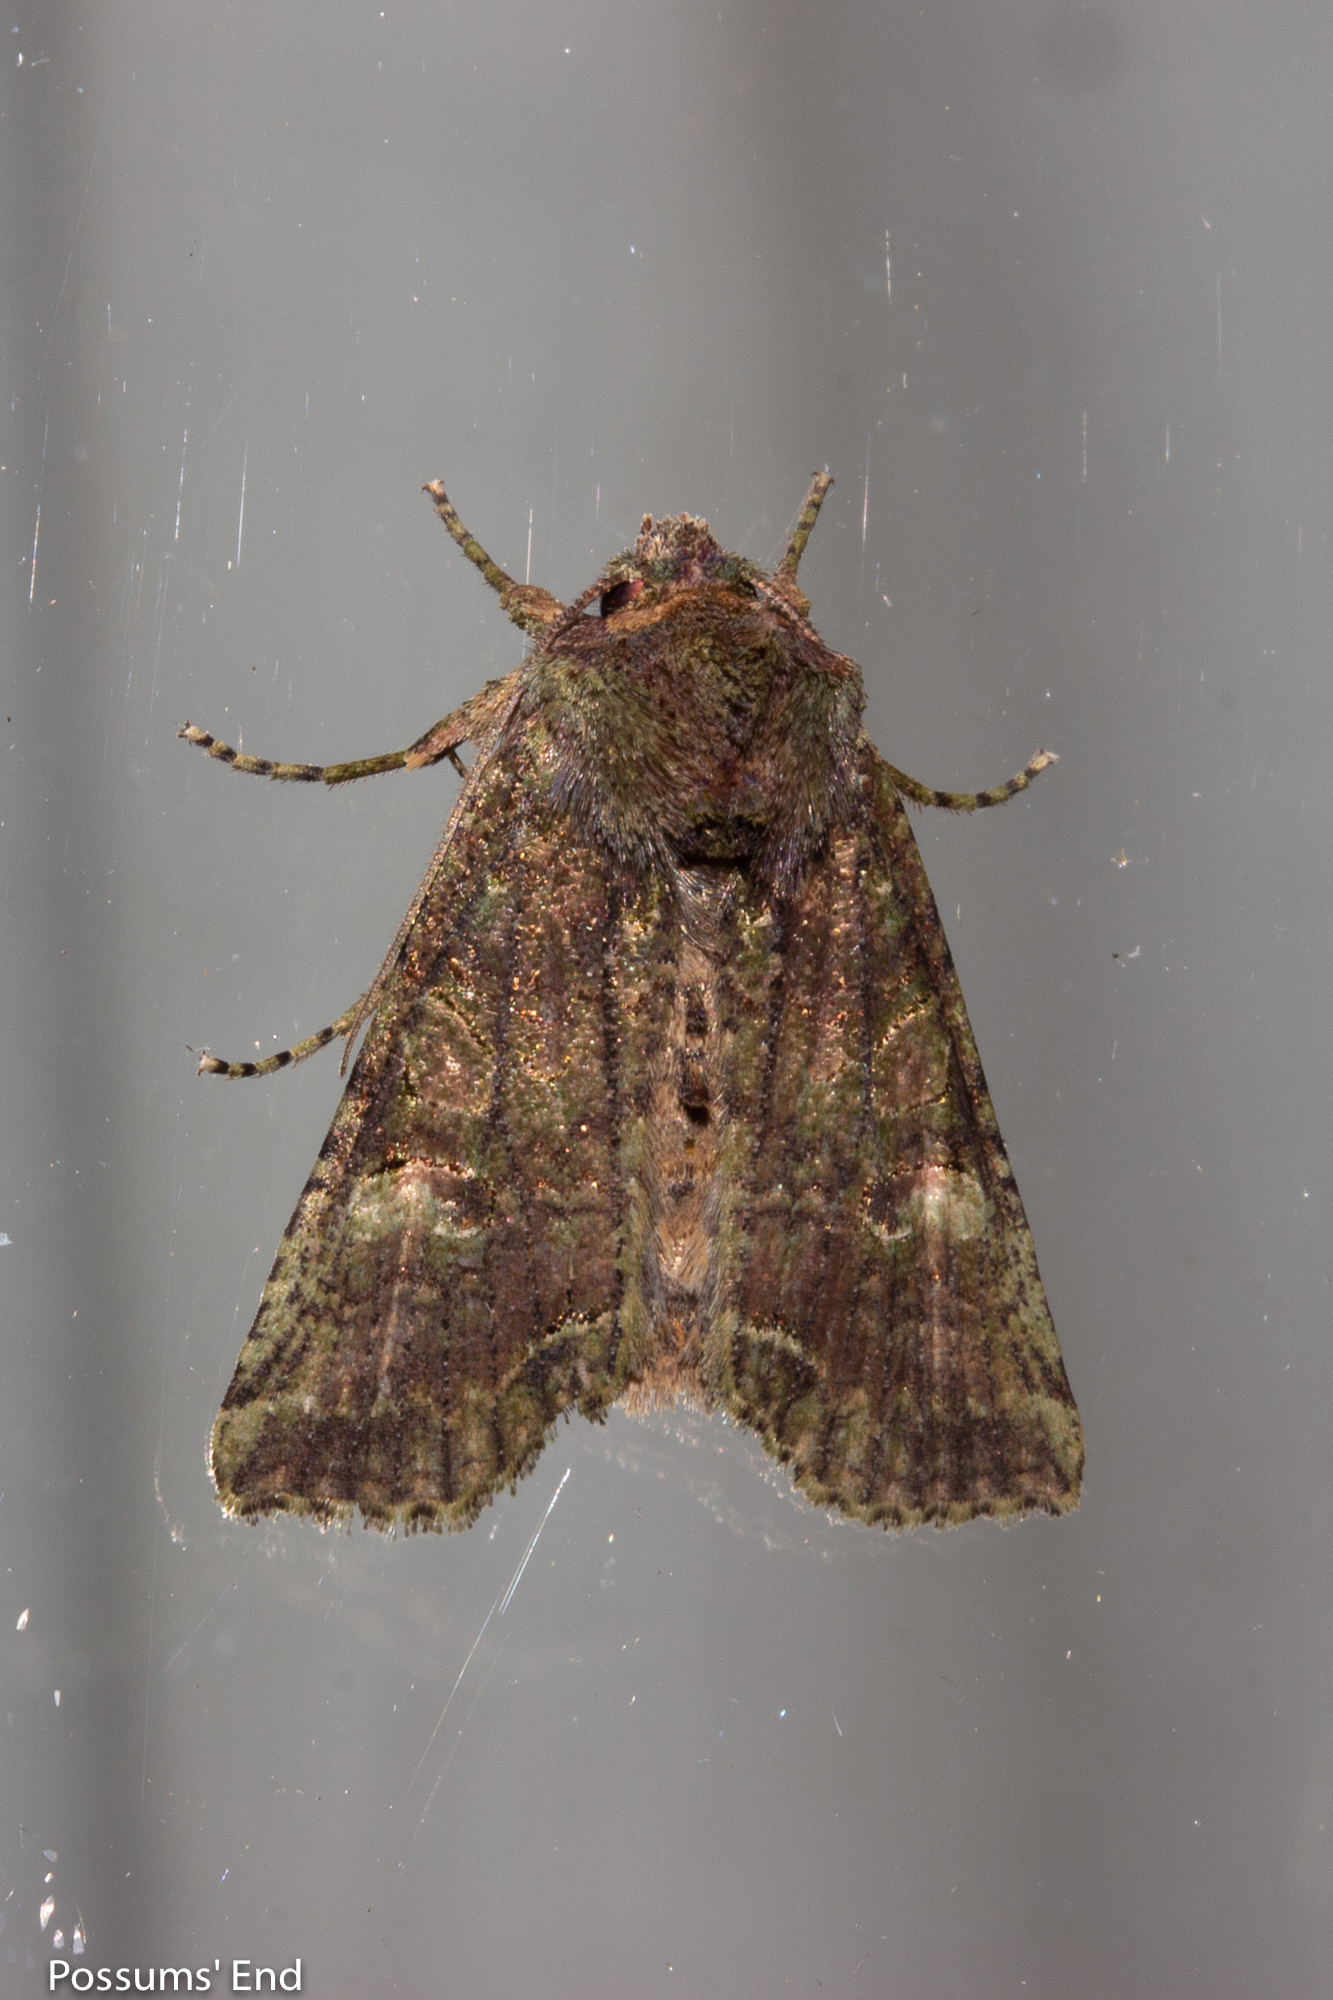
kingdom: Animalia
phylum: Arthropoda
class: Insecta
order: Lepidoptera
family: Noctuidae
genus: Meterana
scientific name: Meterana levis
